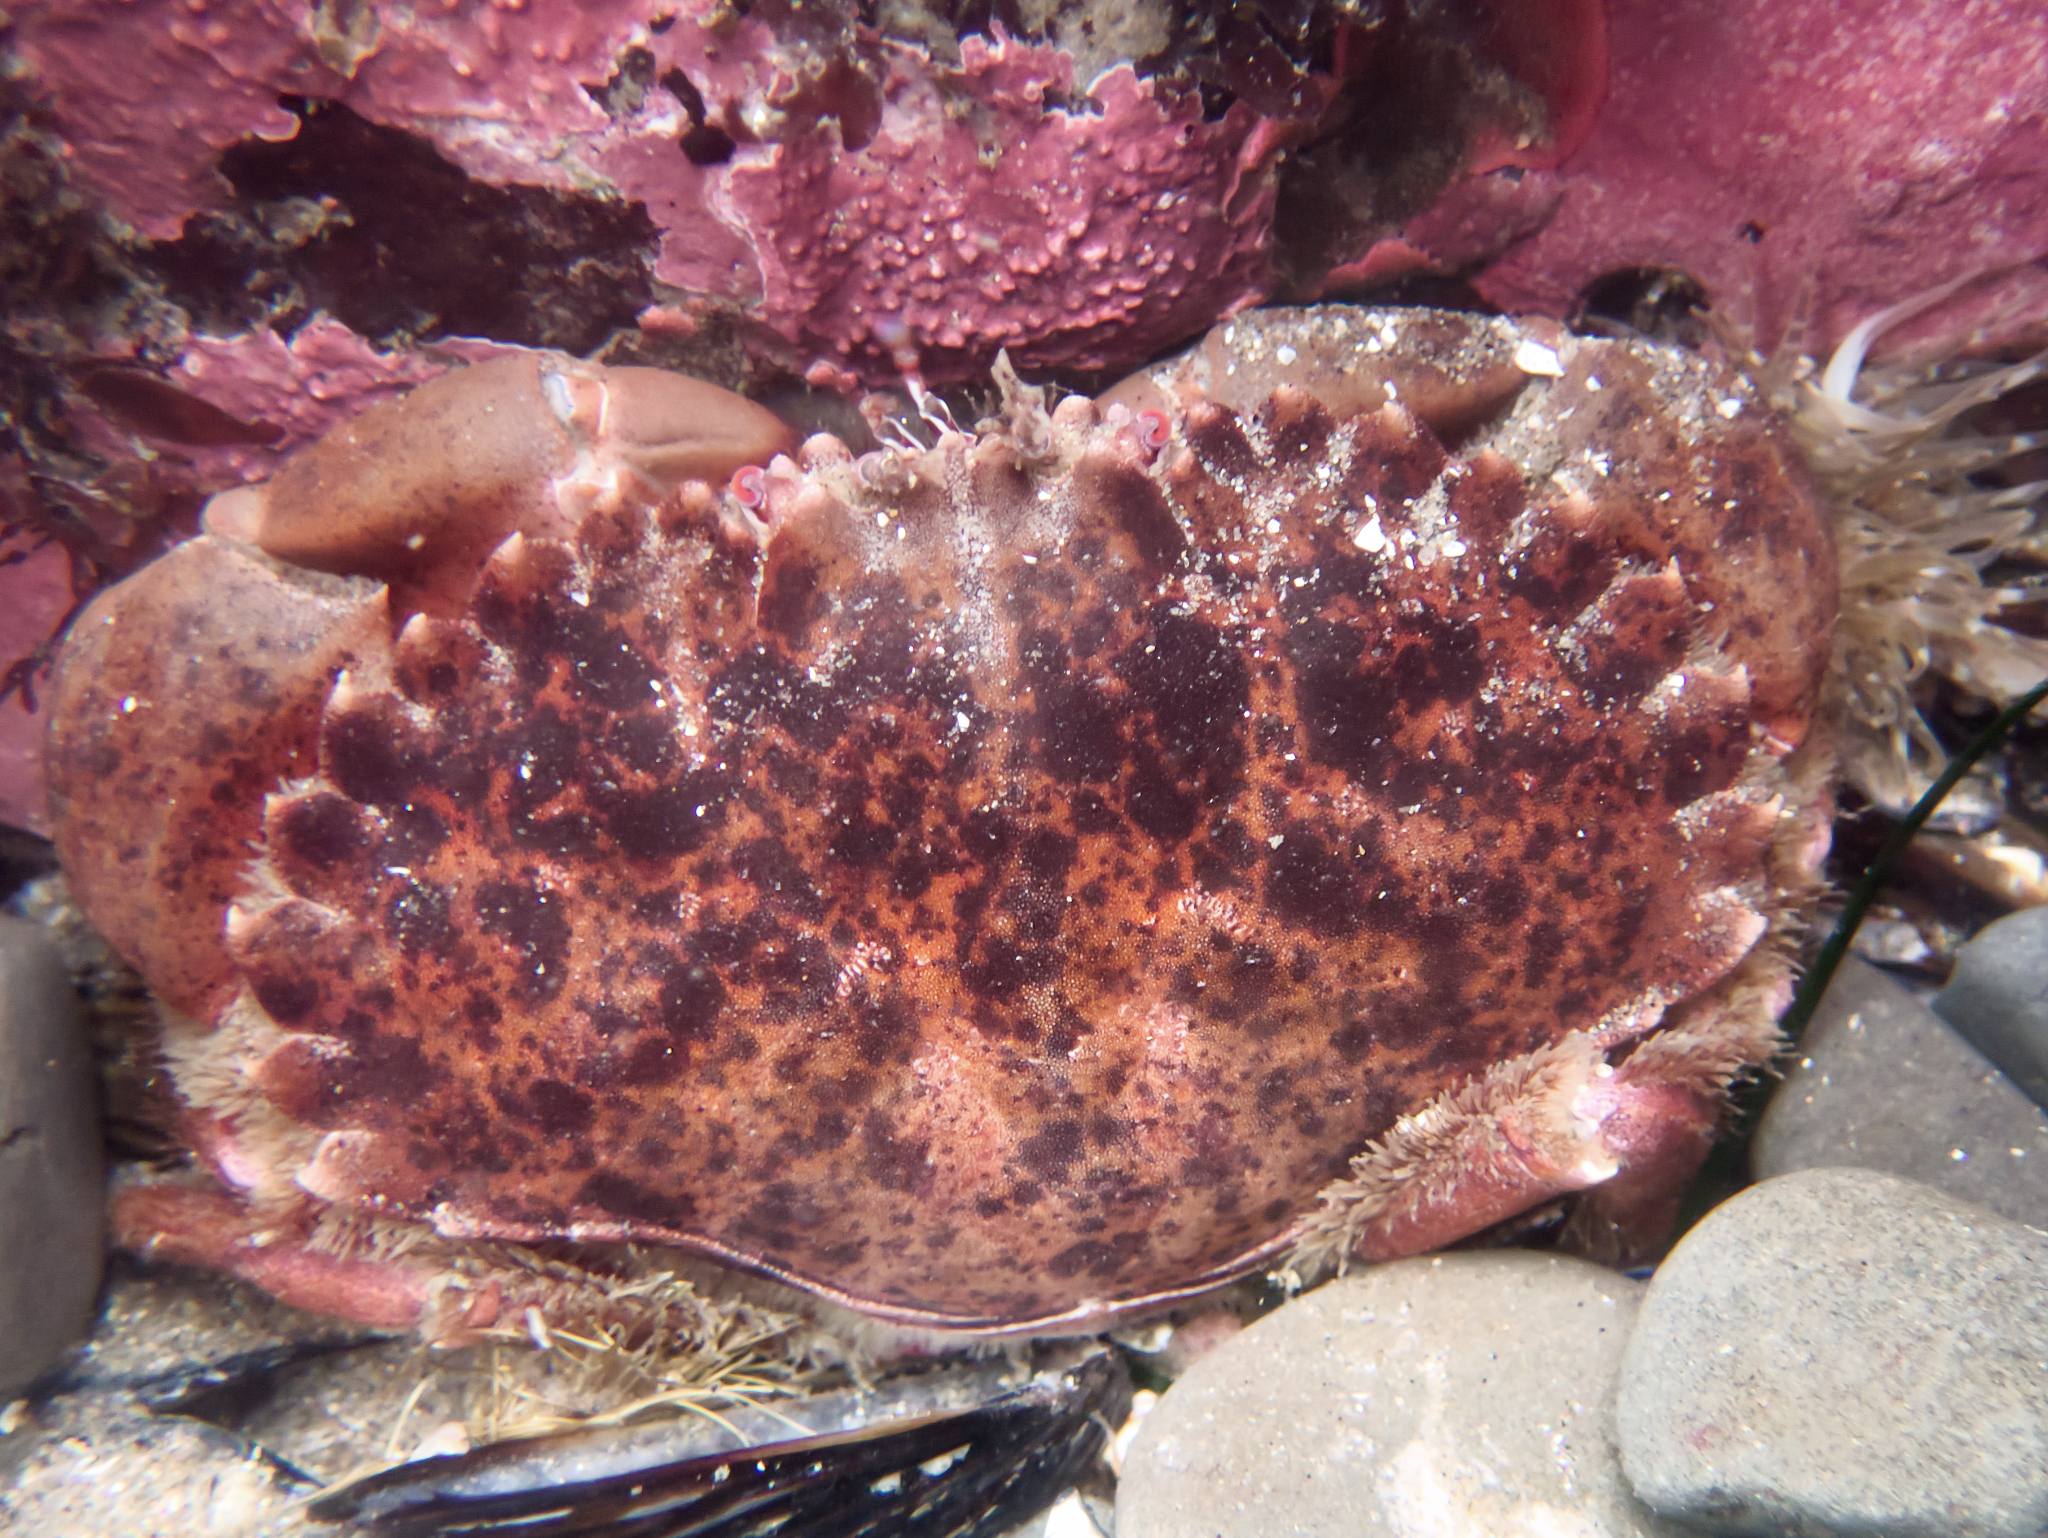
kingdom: Animalia
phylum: Arthropoda
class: Malacostraca
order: Decapoda
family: Cancridae
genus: Romaleon
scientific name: Romaleon antennarium
